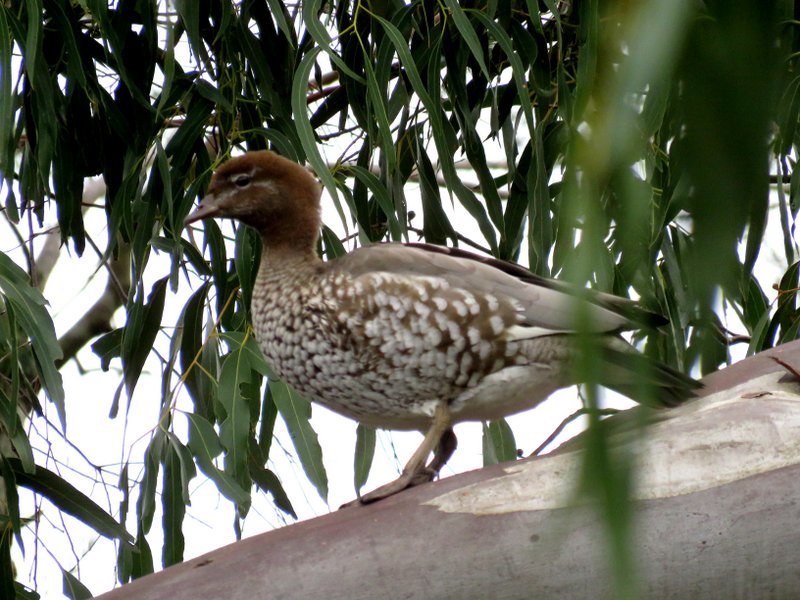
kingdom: Animalia
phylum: Chordata
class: Aves
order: Anseriformes
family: Anatidae
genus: Chenonetta
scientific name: Chenonetta jubata
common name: Maned duck
